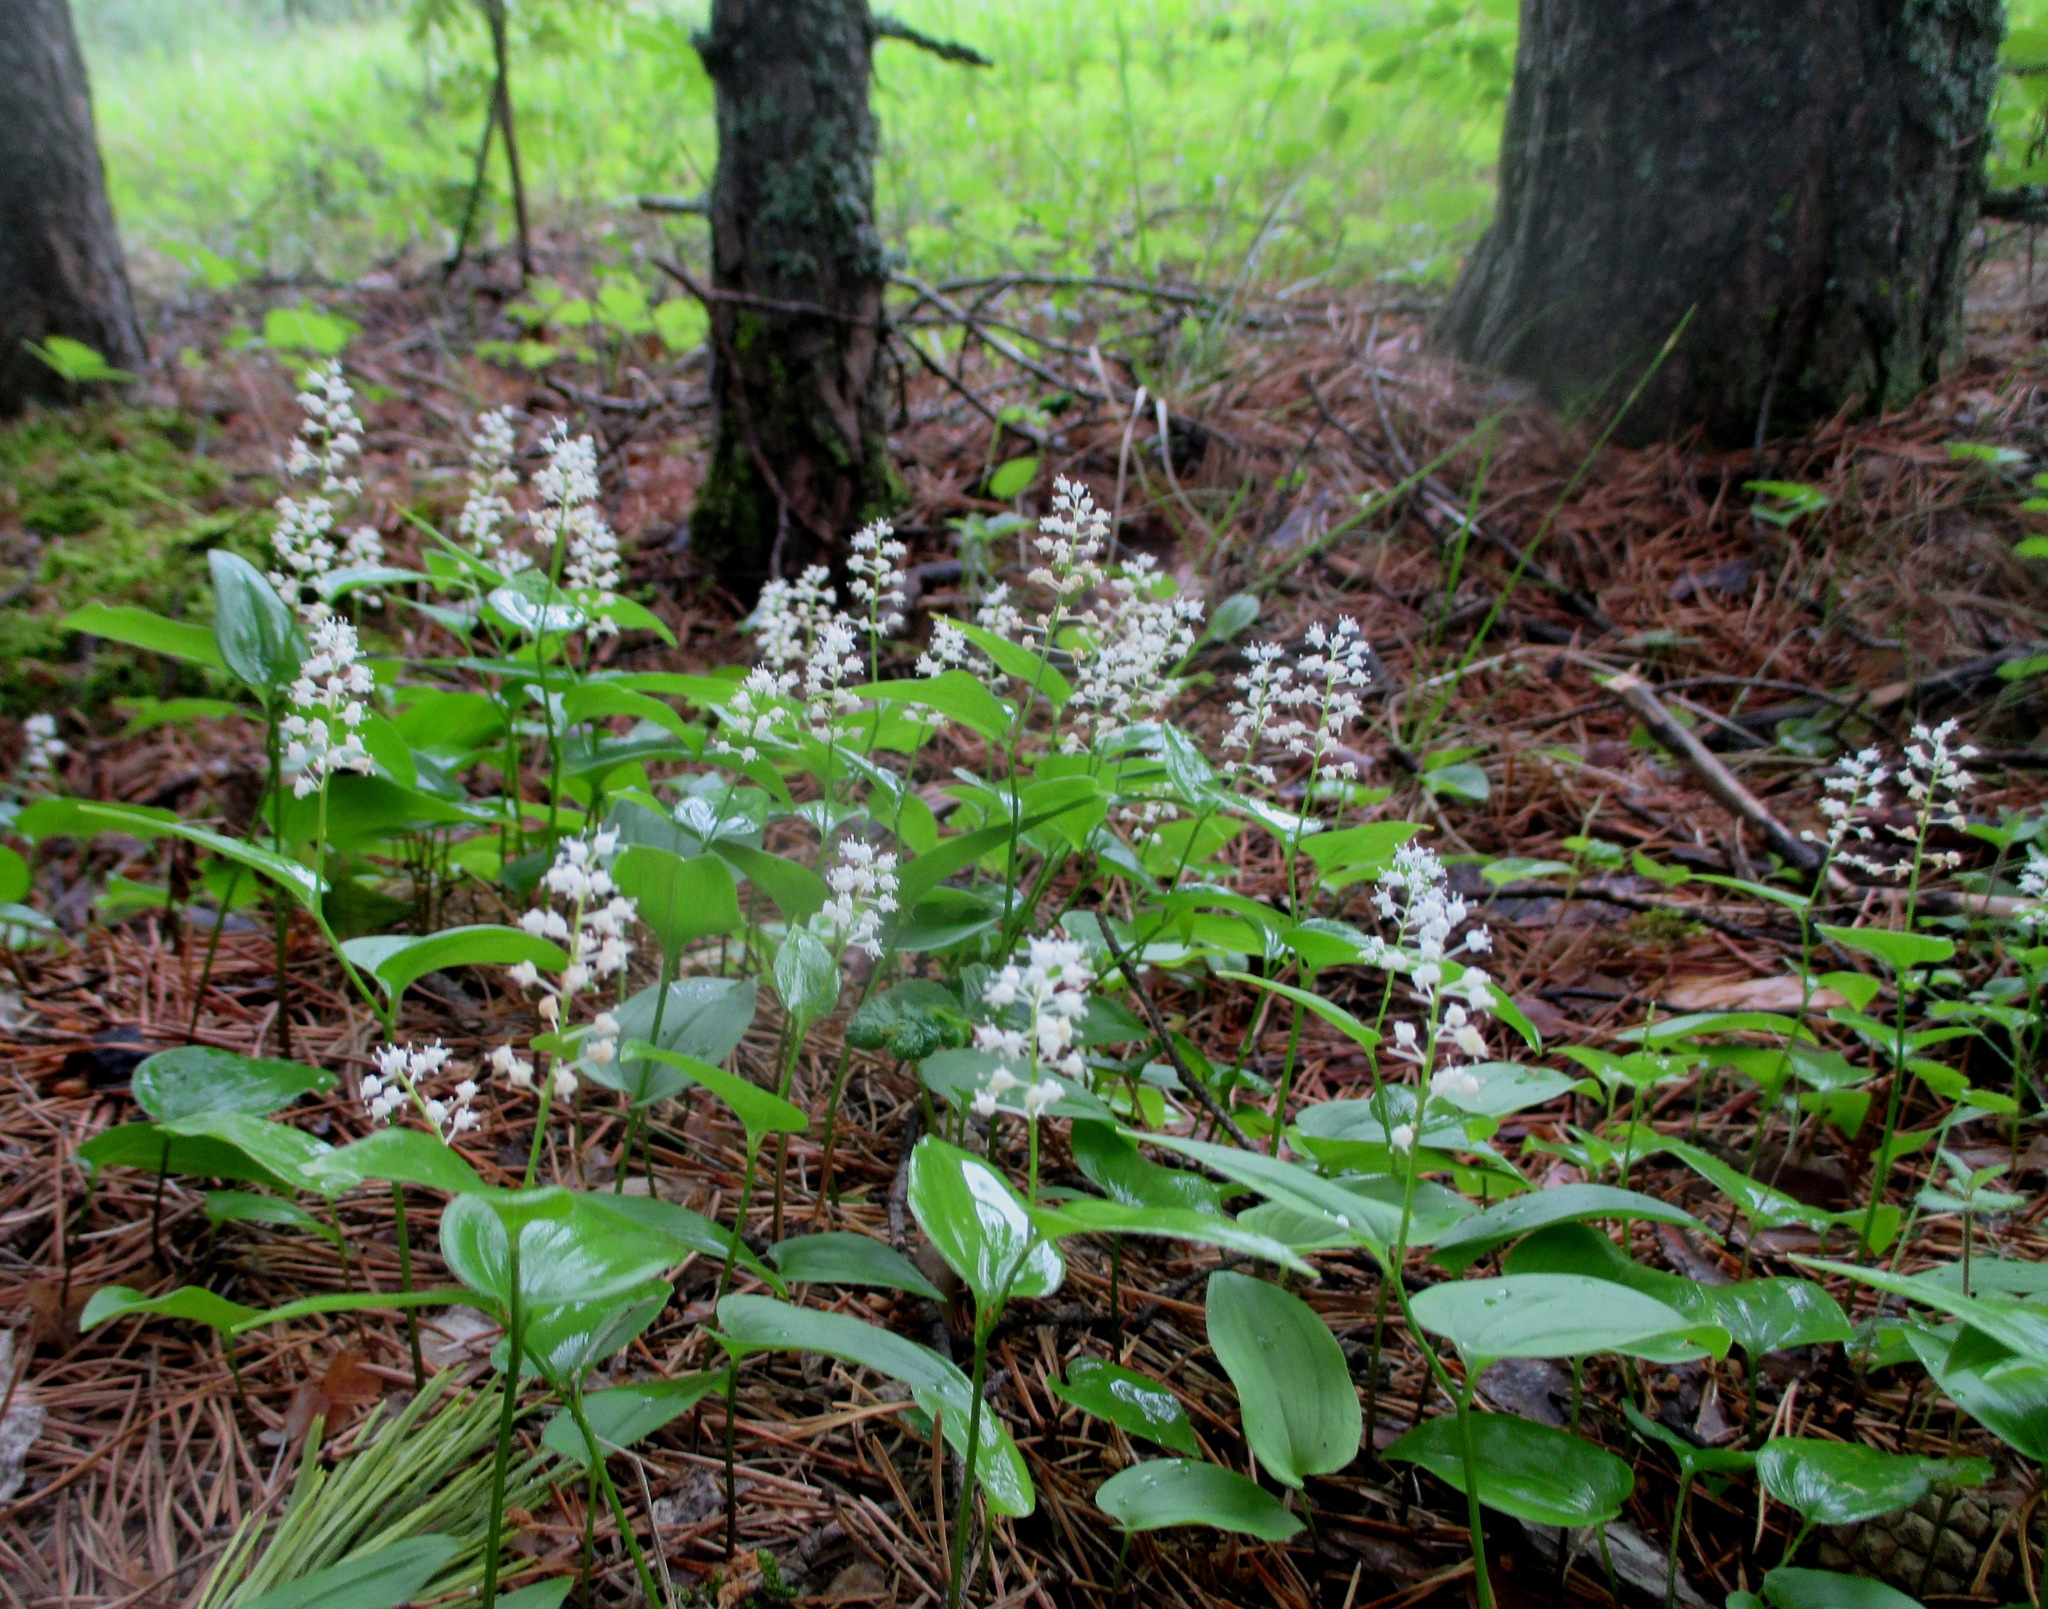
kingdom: Plantae
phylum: Tracheophyta
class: Liliopsida
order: Asparagales
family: Asparagaceae
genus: Maianthemum
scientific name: Maianthemum bifolium
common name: May lily
